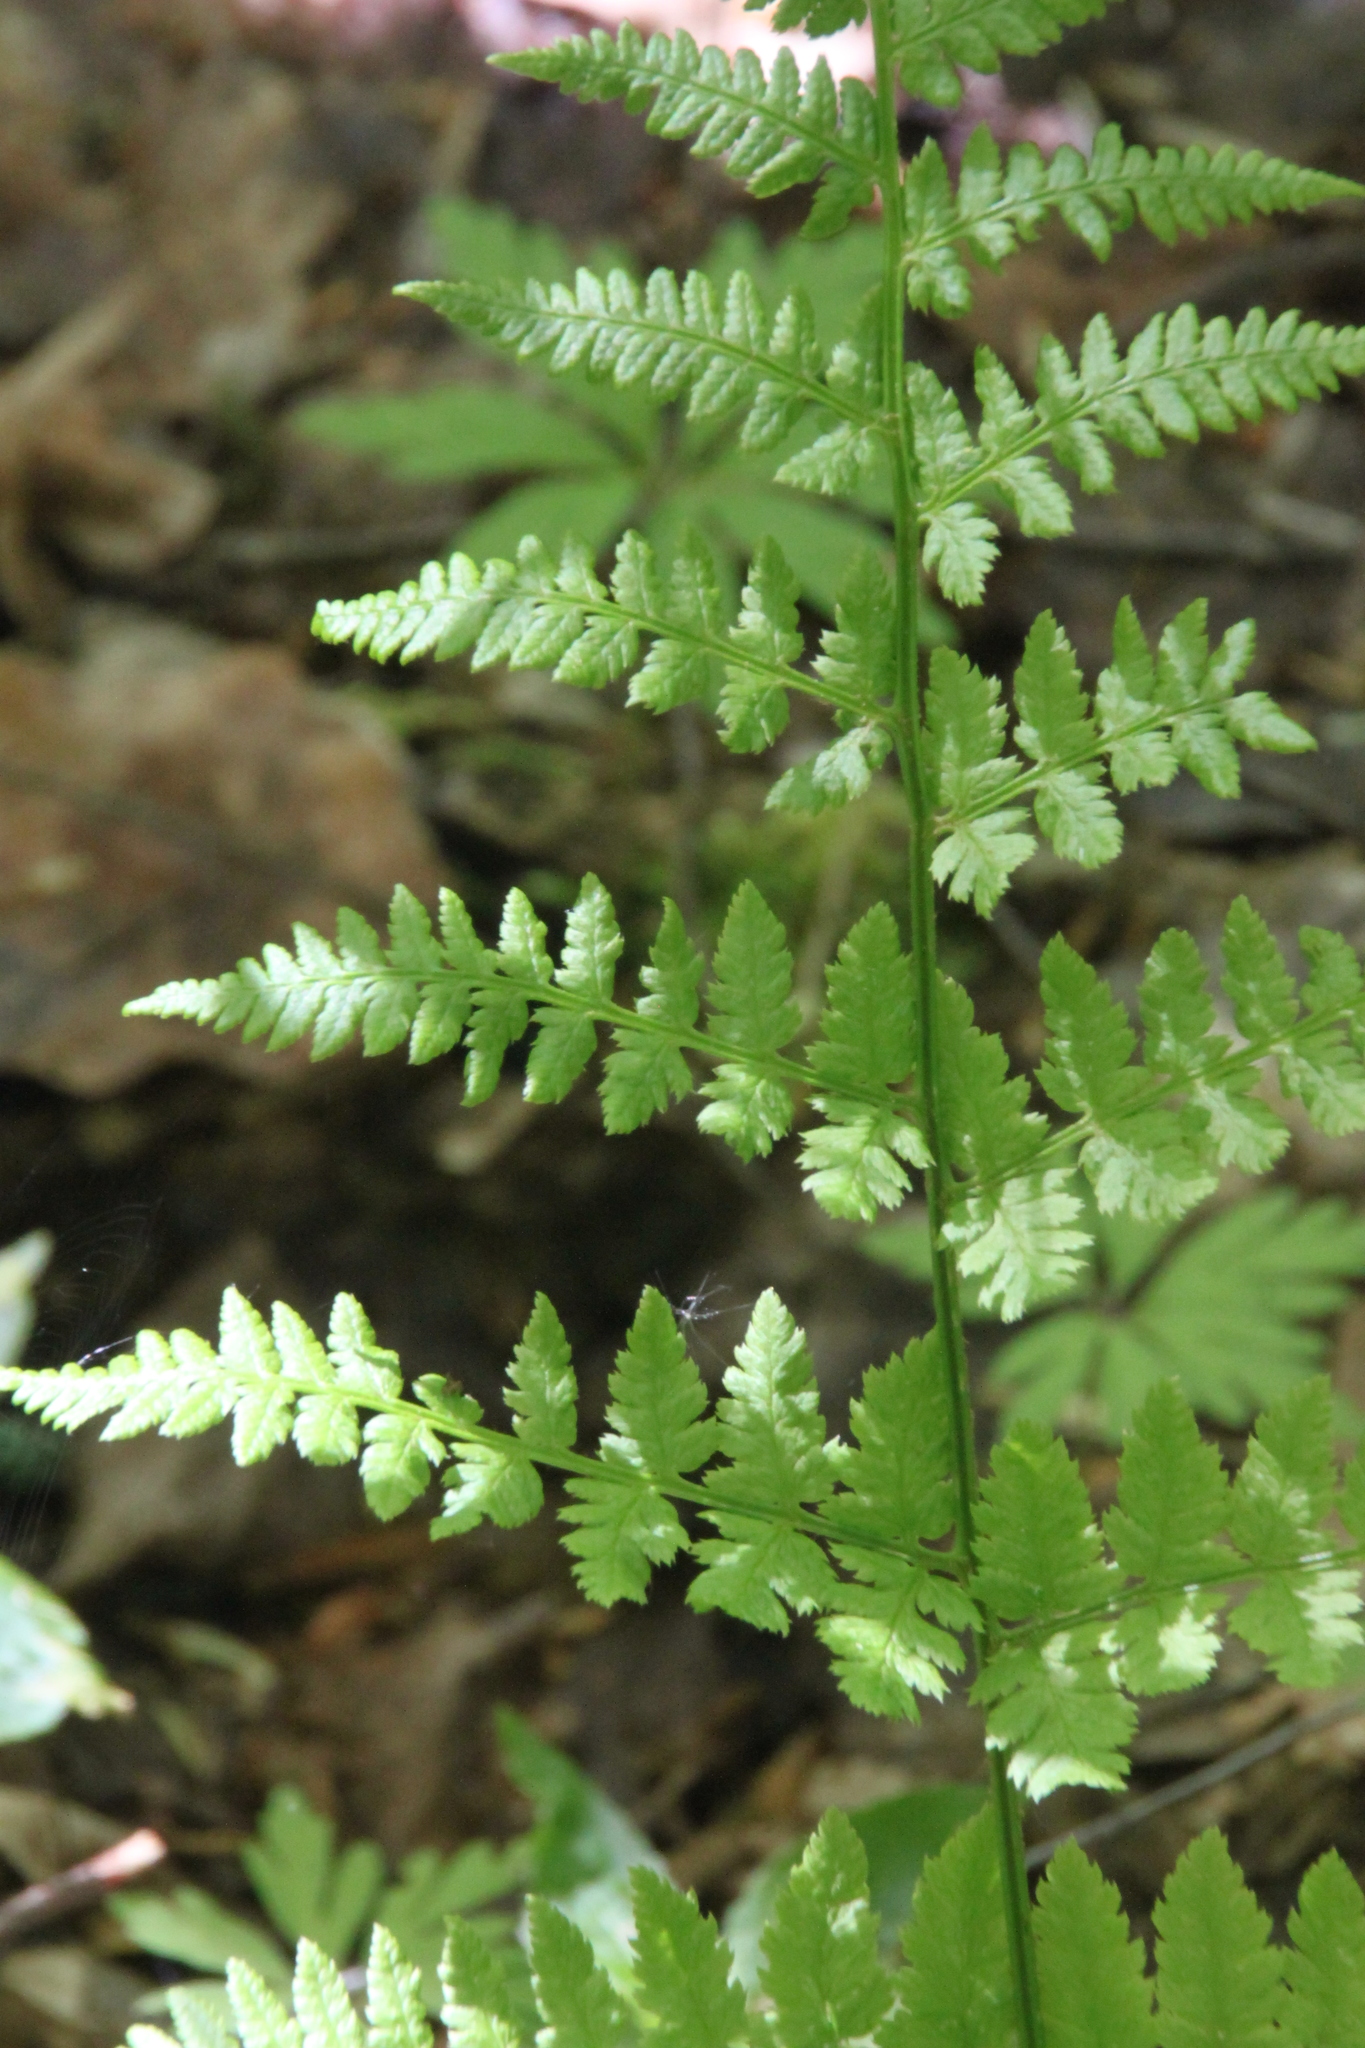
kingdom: Plantae
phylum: Tracheophyta
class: Polypodiopsida
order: Polypodiales
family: Dryopteridaceae
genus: Dryopteris
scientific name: Dryopteris carthusiana
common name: Narrow buckler-fern
